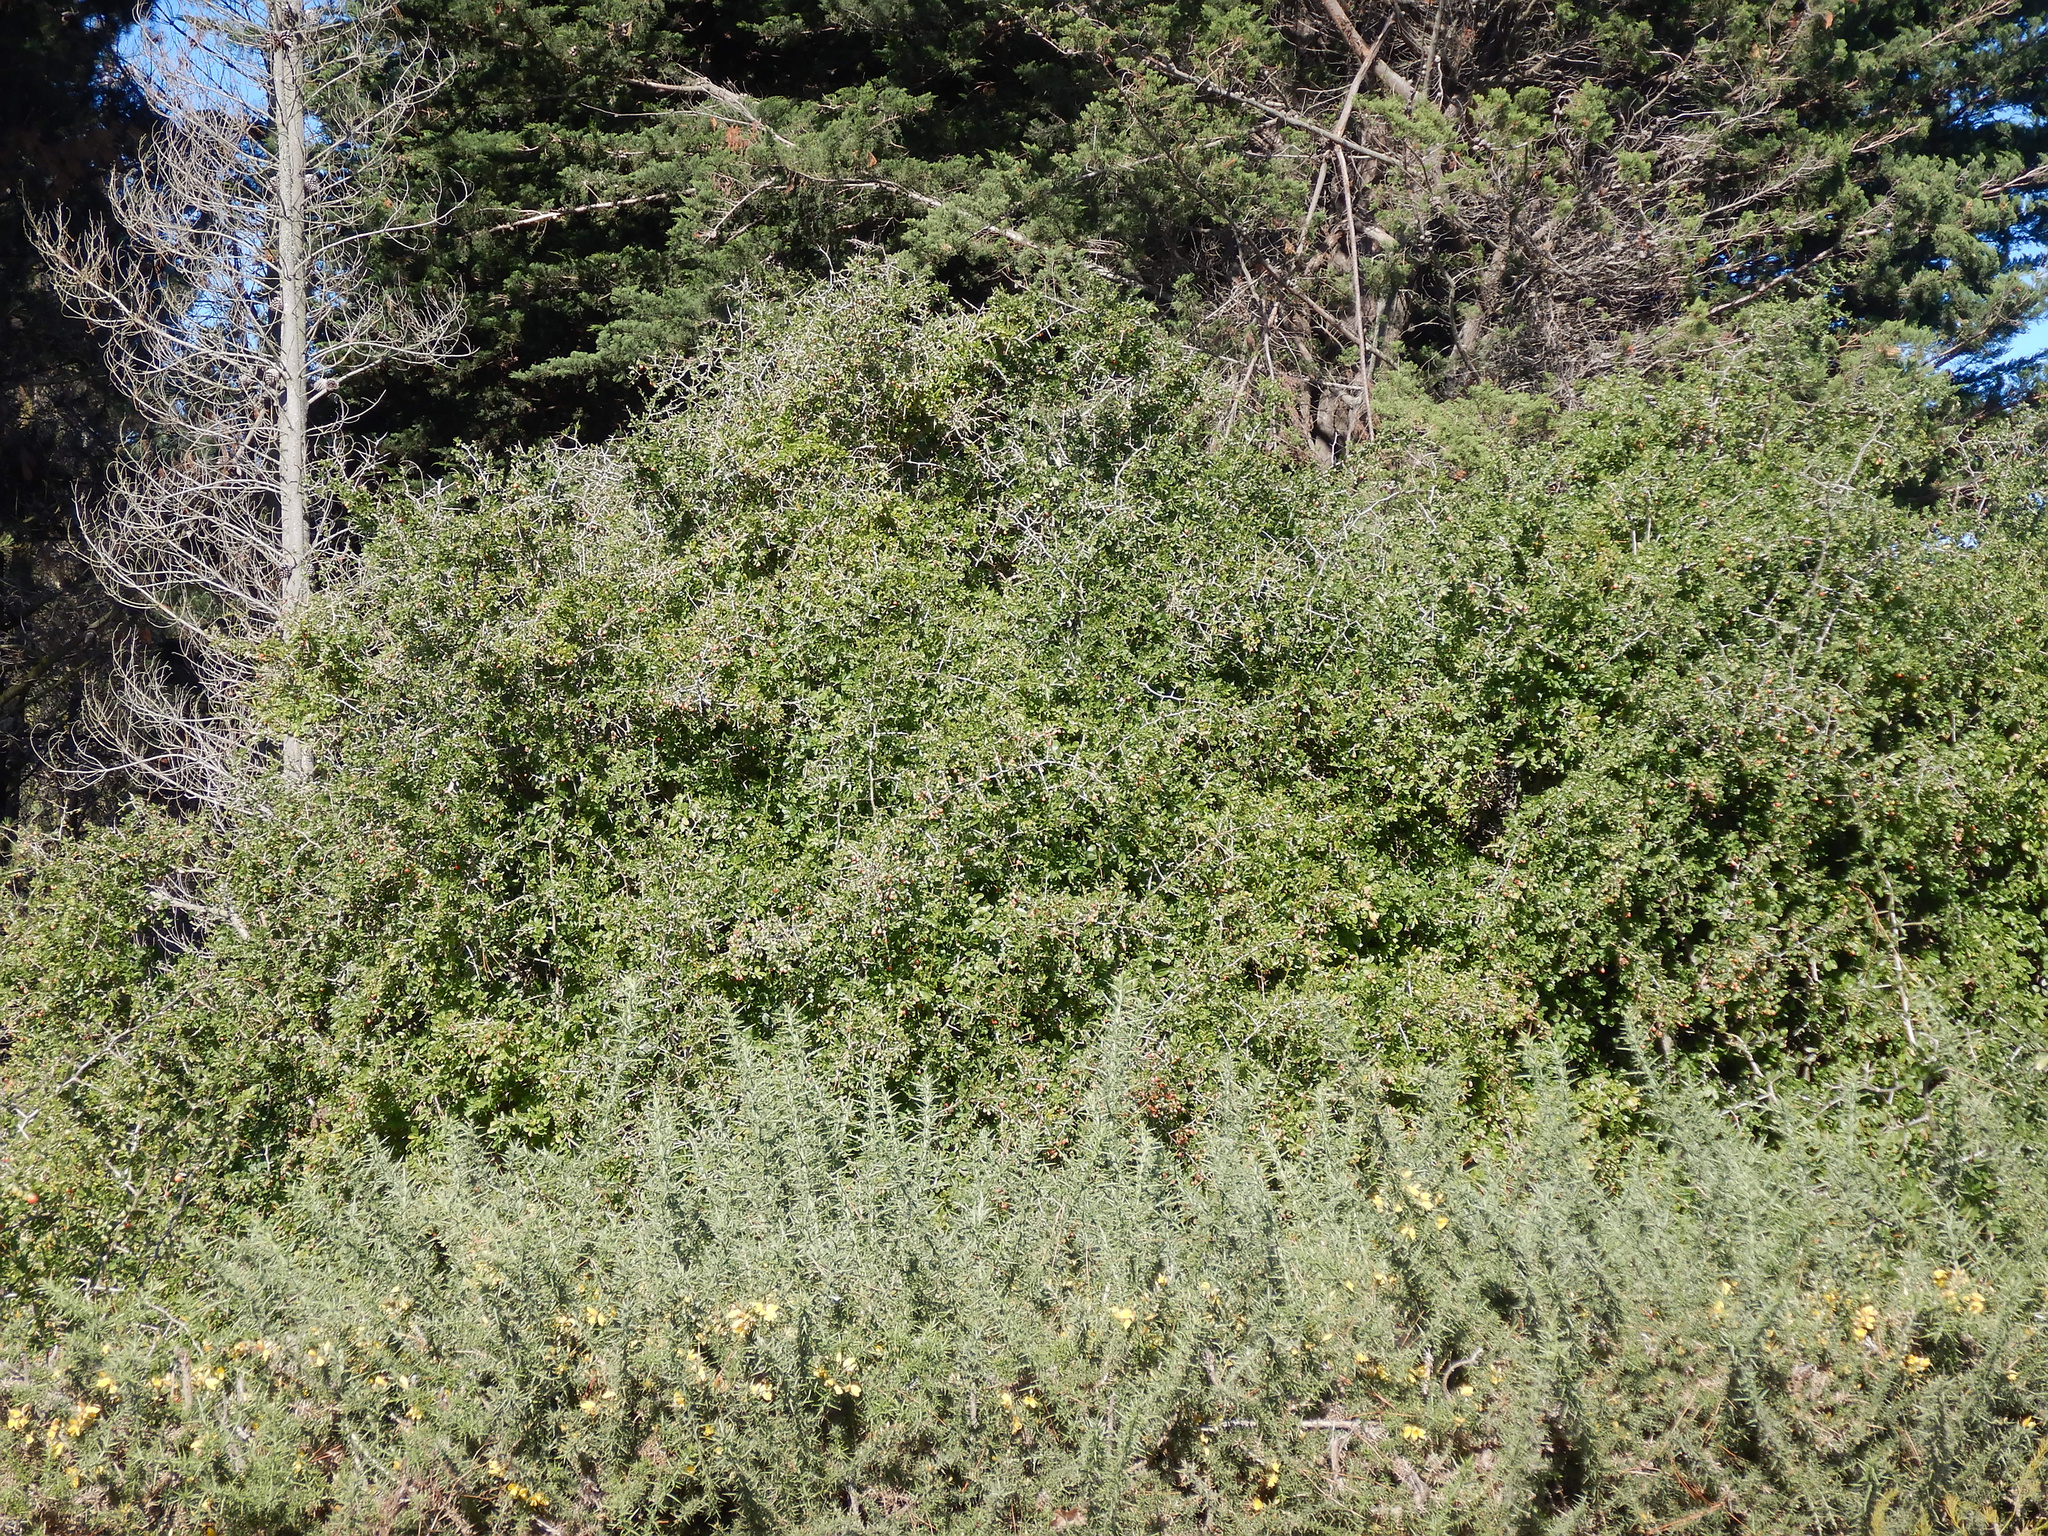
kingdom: Plantae
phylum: Tracheophyta
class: Magnoliopsida
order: Solanales
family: Solanaceae
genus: Lycium
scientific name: Lycium ferocissimum
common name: African boxthorn
